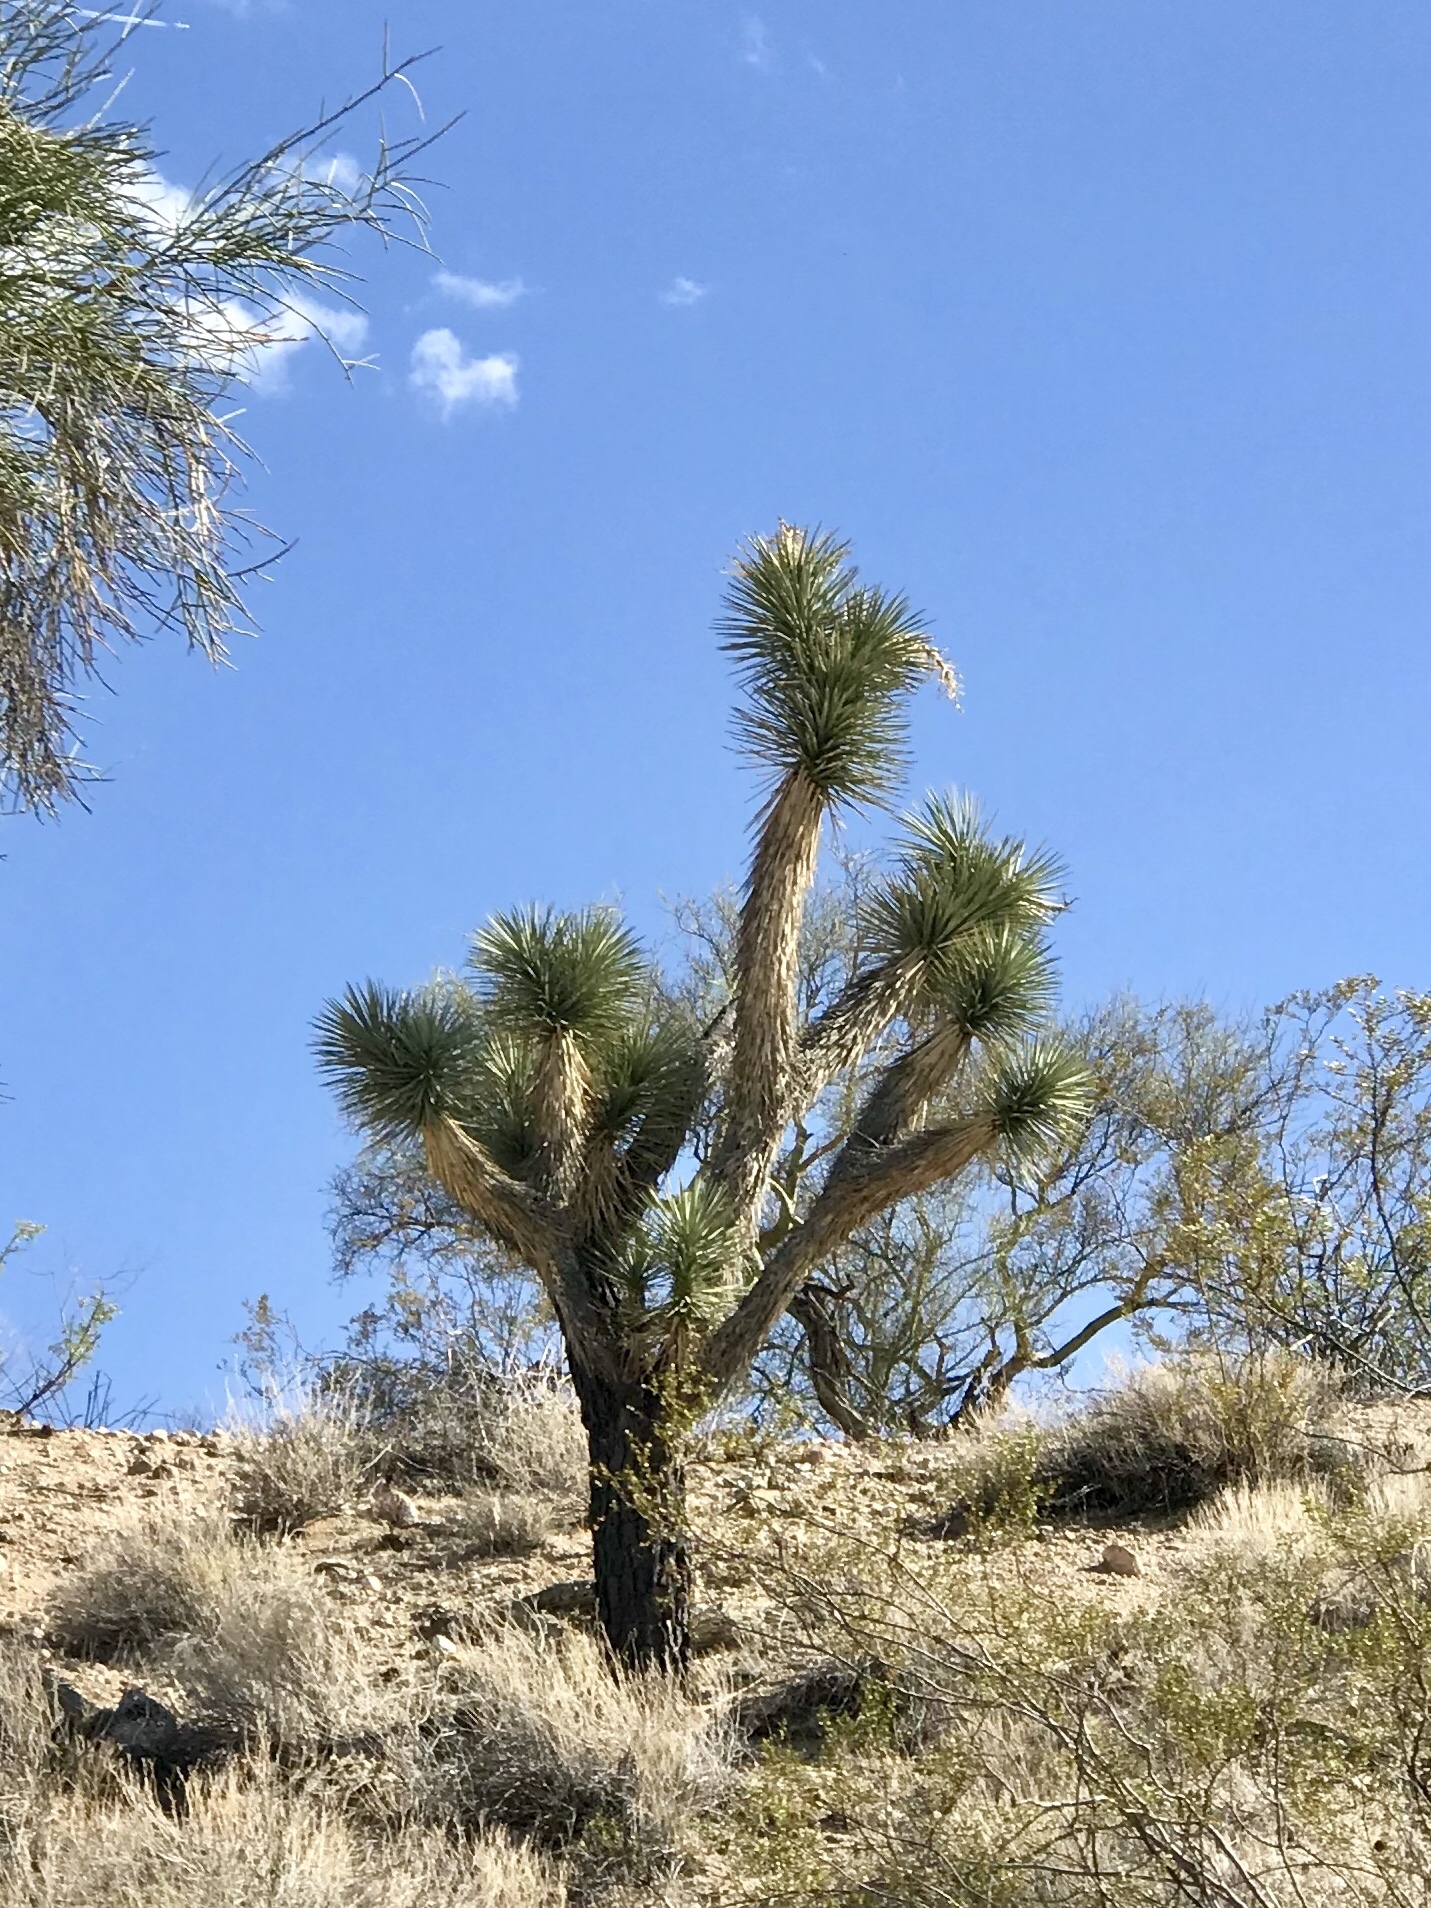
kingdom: Plantae
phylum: Tracheophyta
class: Liliopsida
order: Asparagales
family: Asparagaceae
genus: Yucca
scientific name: Yucca brevifolia
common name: Joshua tree
